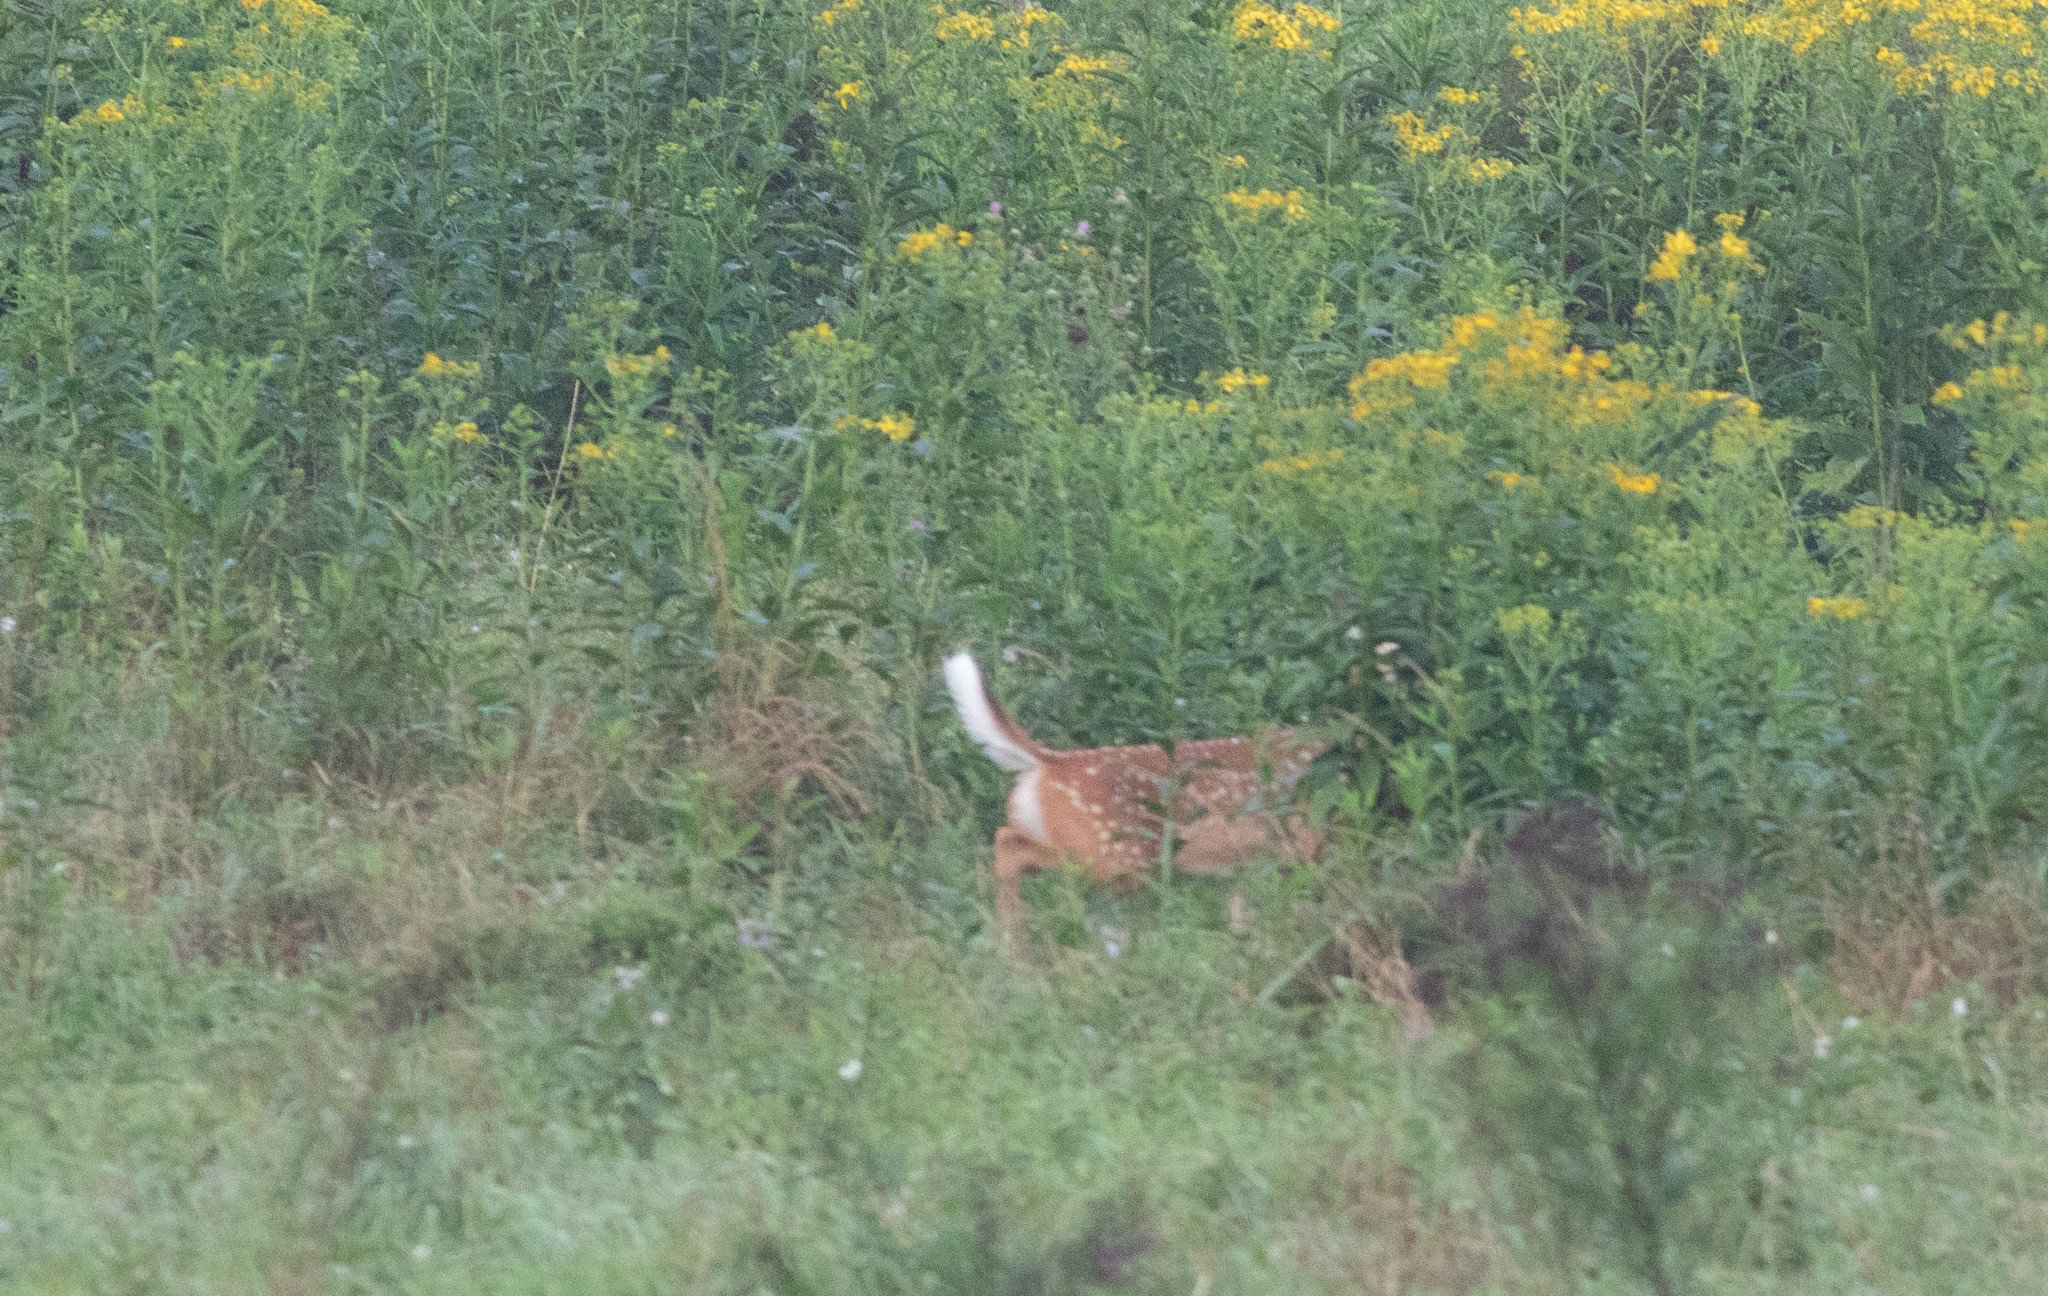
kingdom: Animalia
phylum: Chordata
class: Mammalia
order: Artiodactyla
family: Cervidae
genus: Odocoileus
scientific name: Odocoileus virginianus
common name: White-tailed deer
